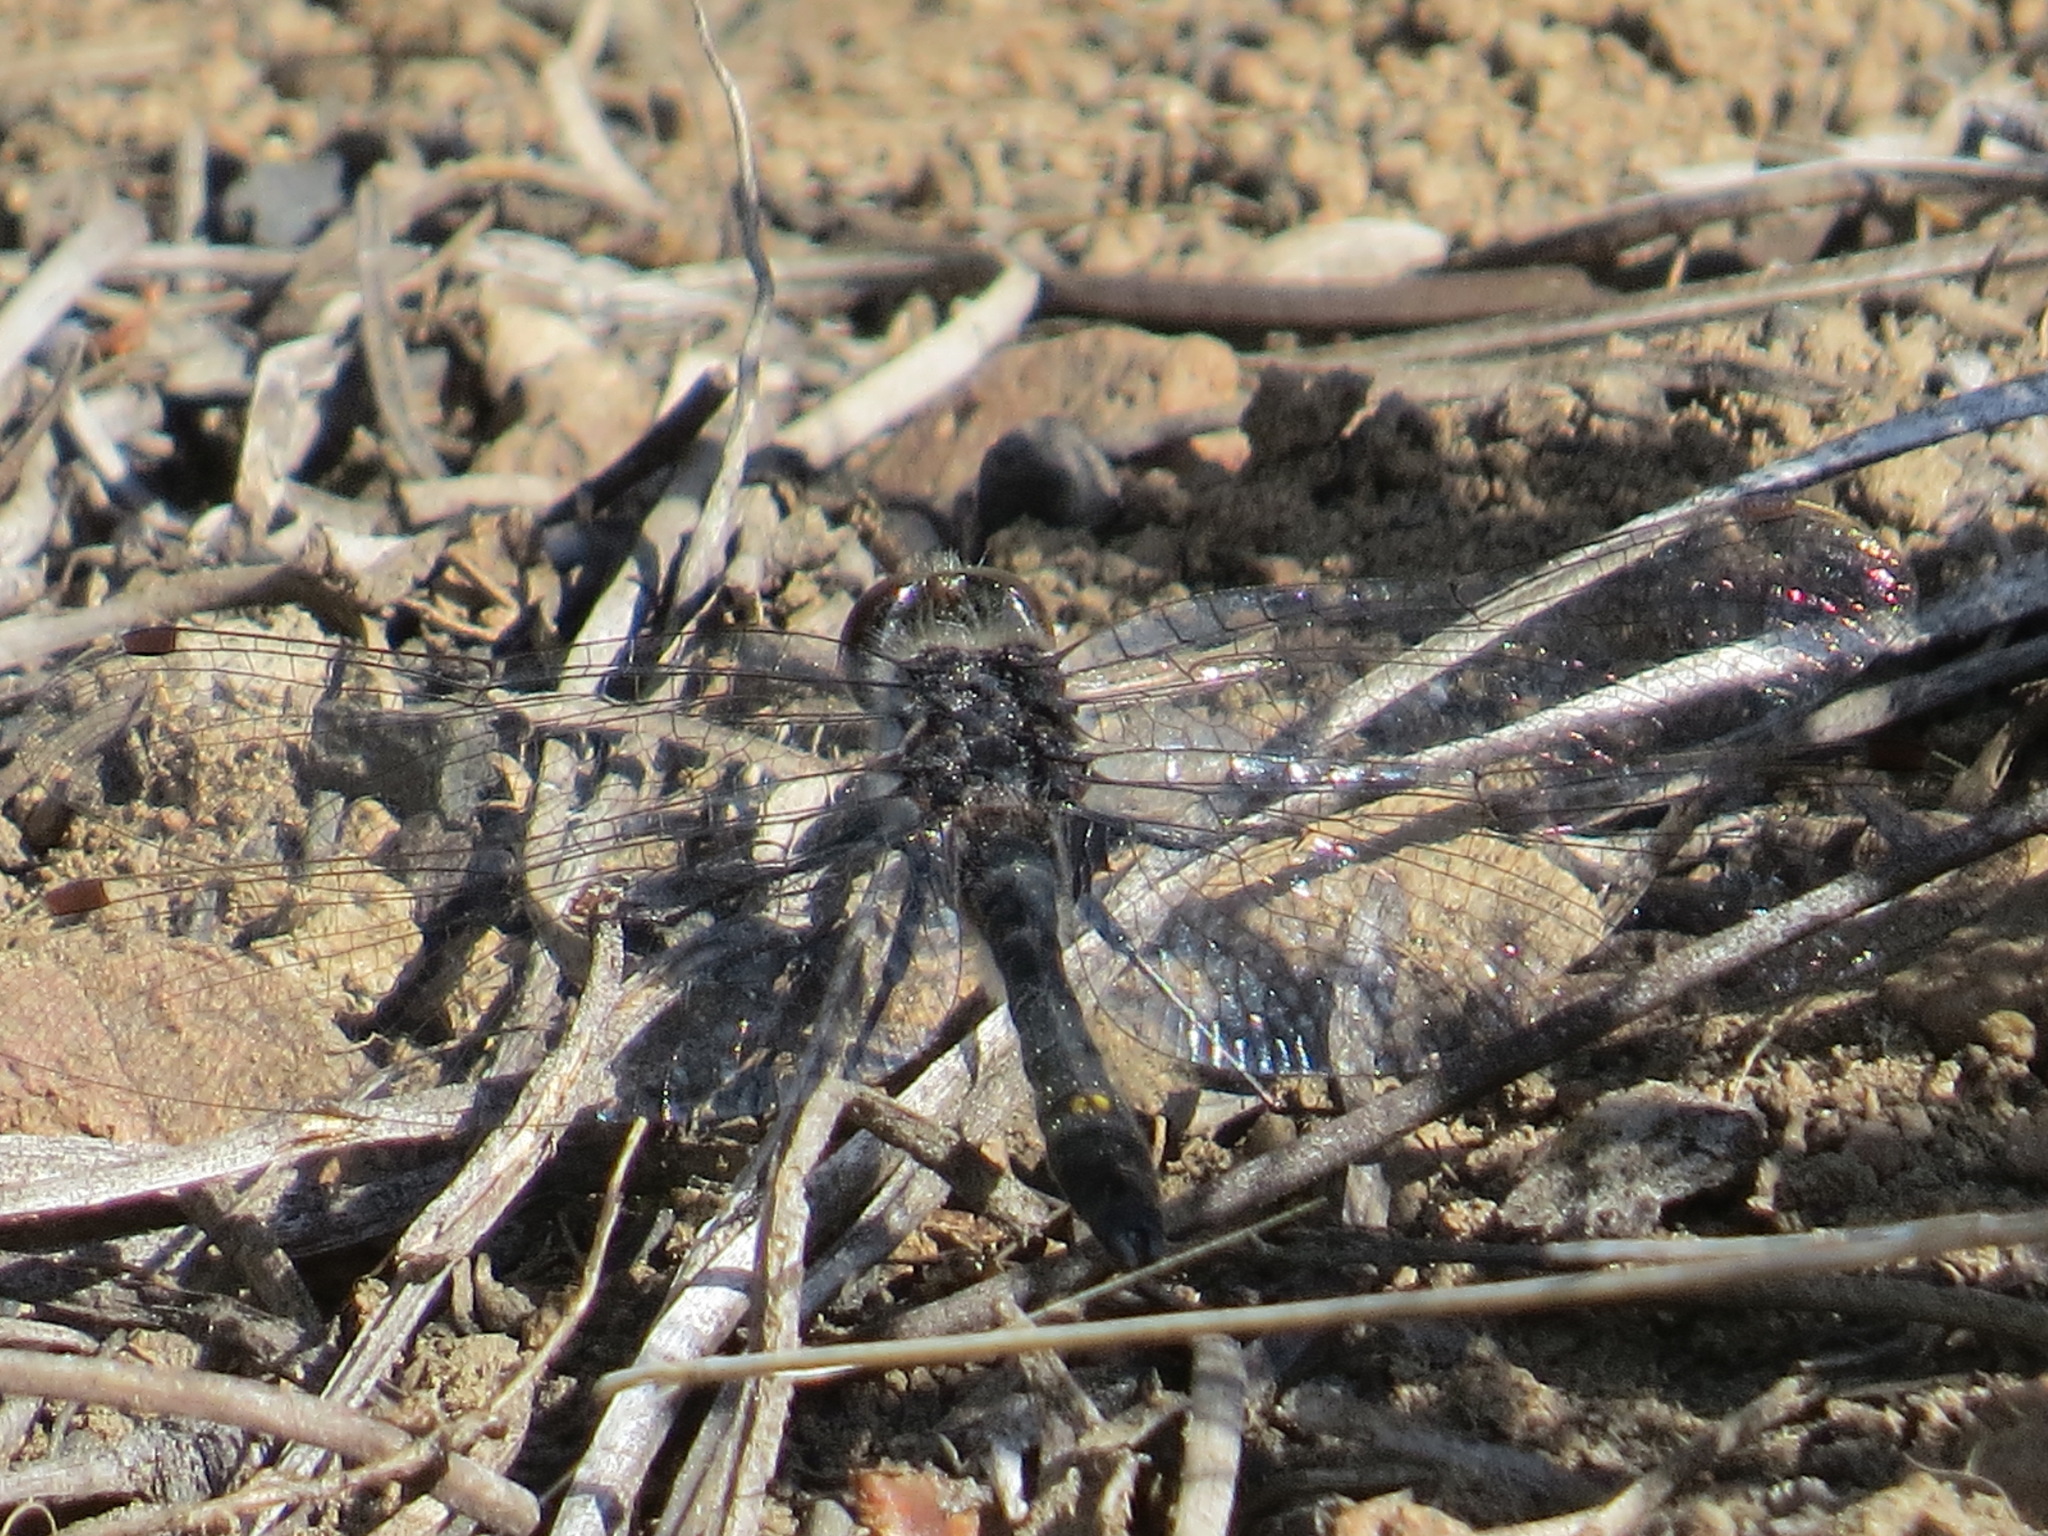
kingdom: Animalia
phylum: Arthropoda
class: Insecta
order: Odonata
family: Libellulidae
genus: Leucorrhinia
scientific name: Leucorrhinia intacta
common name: Dot-tailed whiteface
